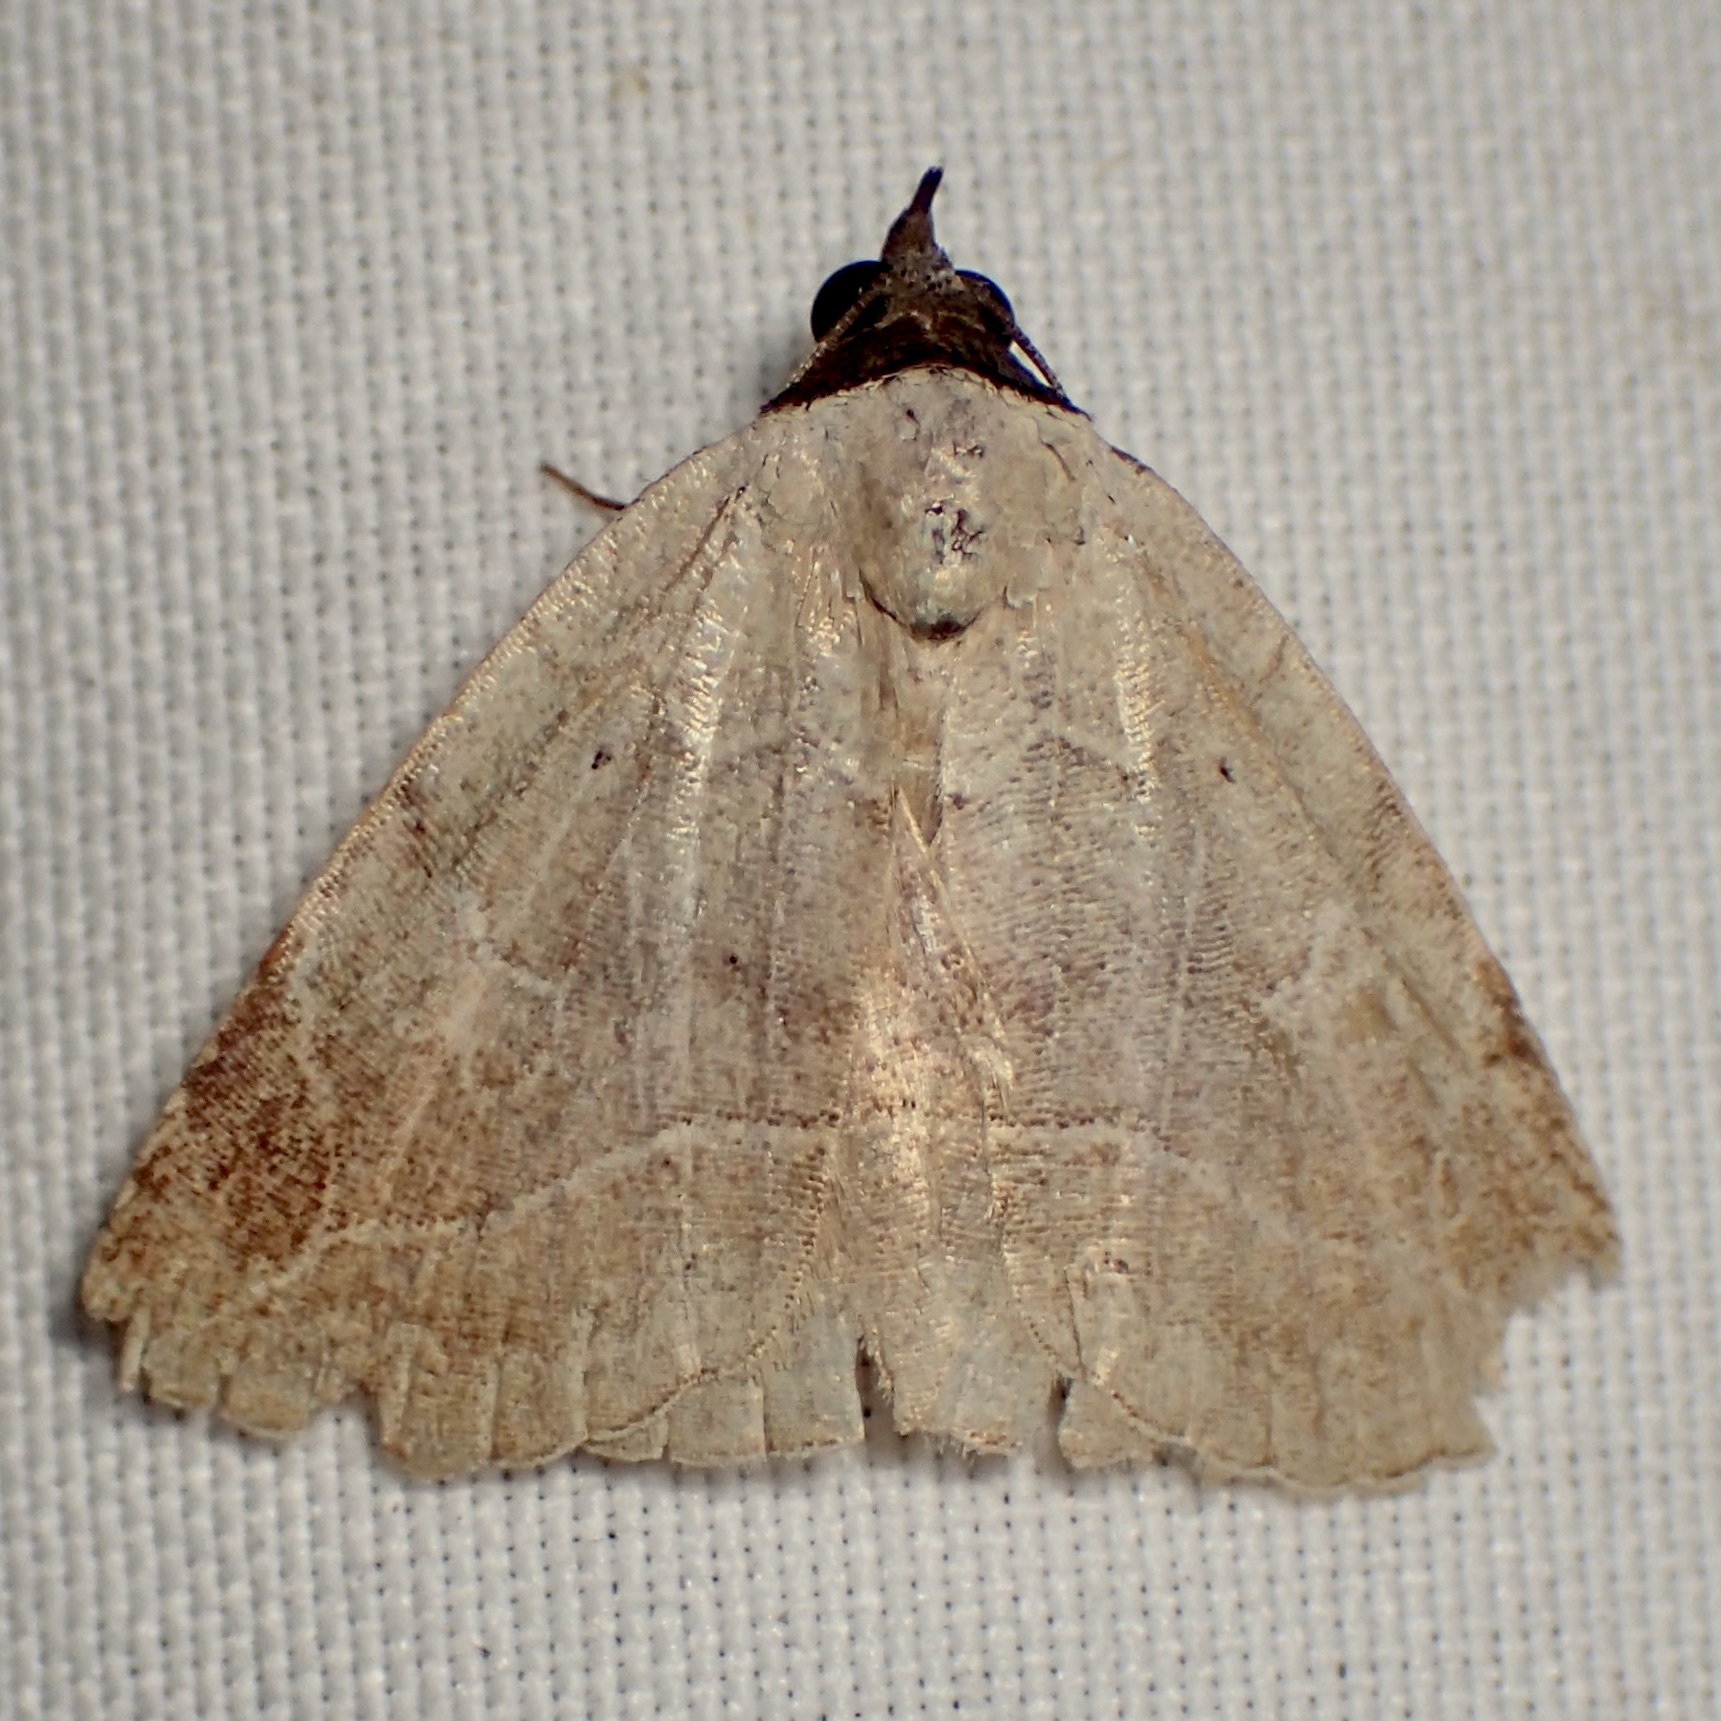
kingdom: Animalia
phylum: Arthropoda
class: Insecta
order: Lepidoptera
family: Erebidae
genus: Isogona
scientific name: Isogona segura
